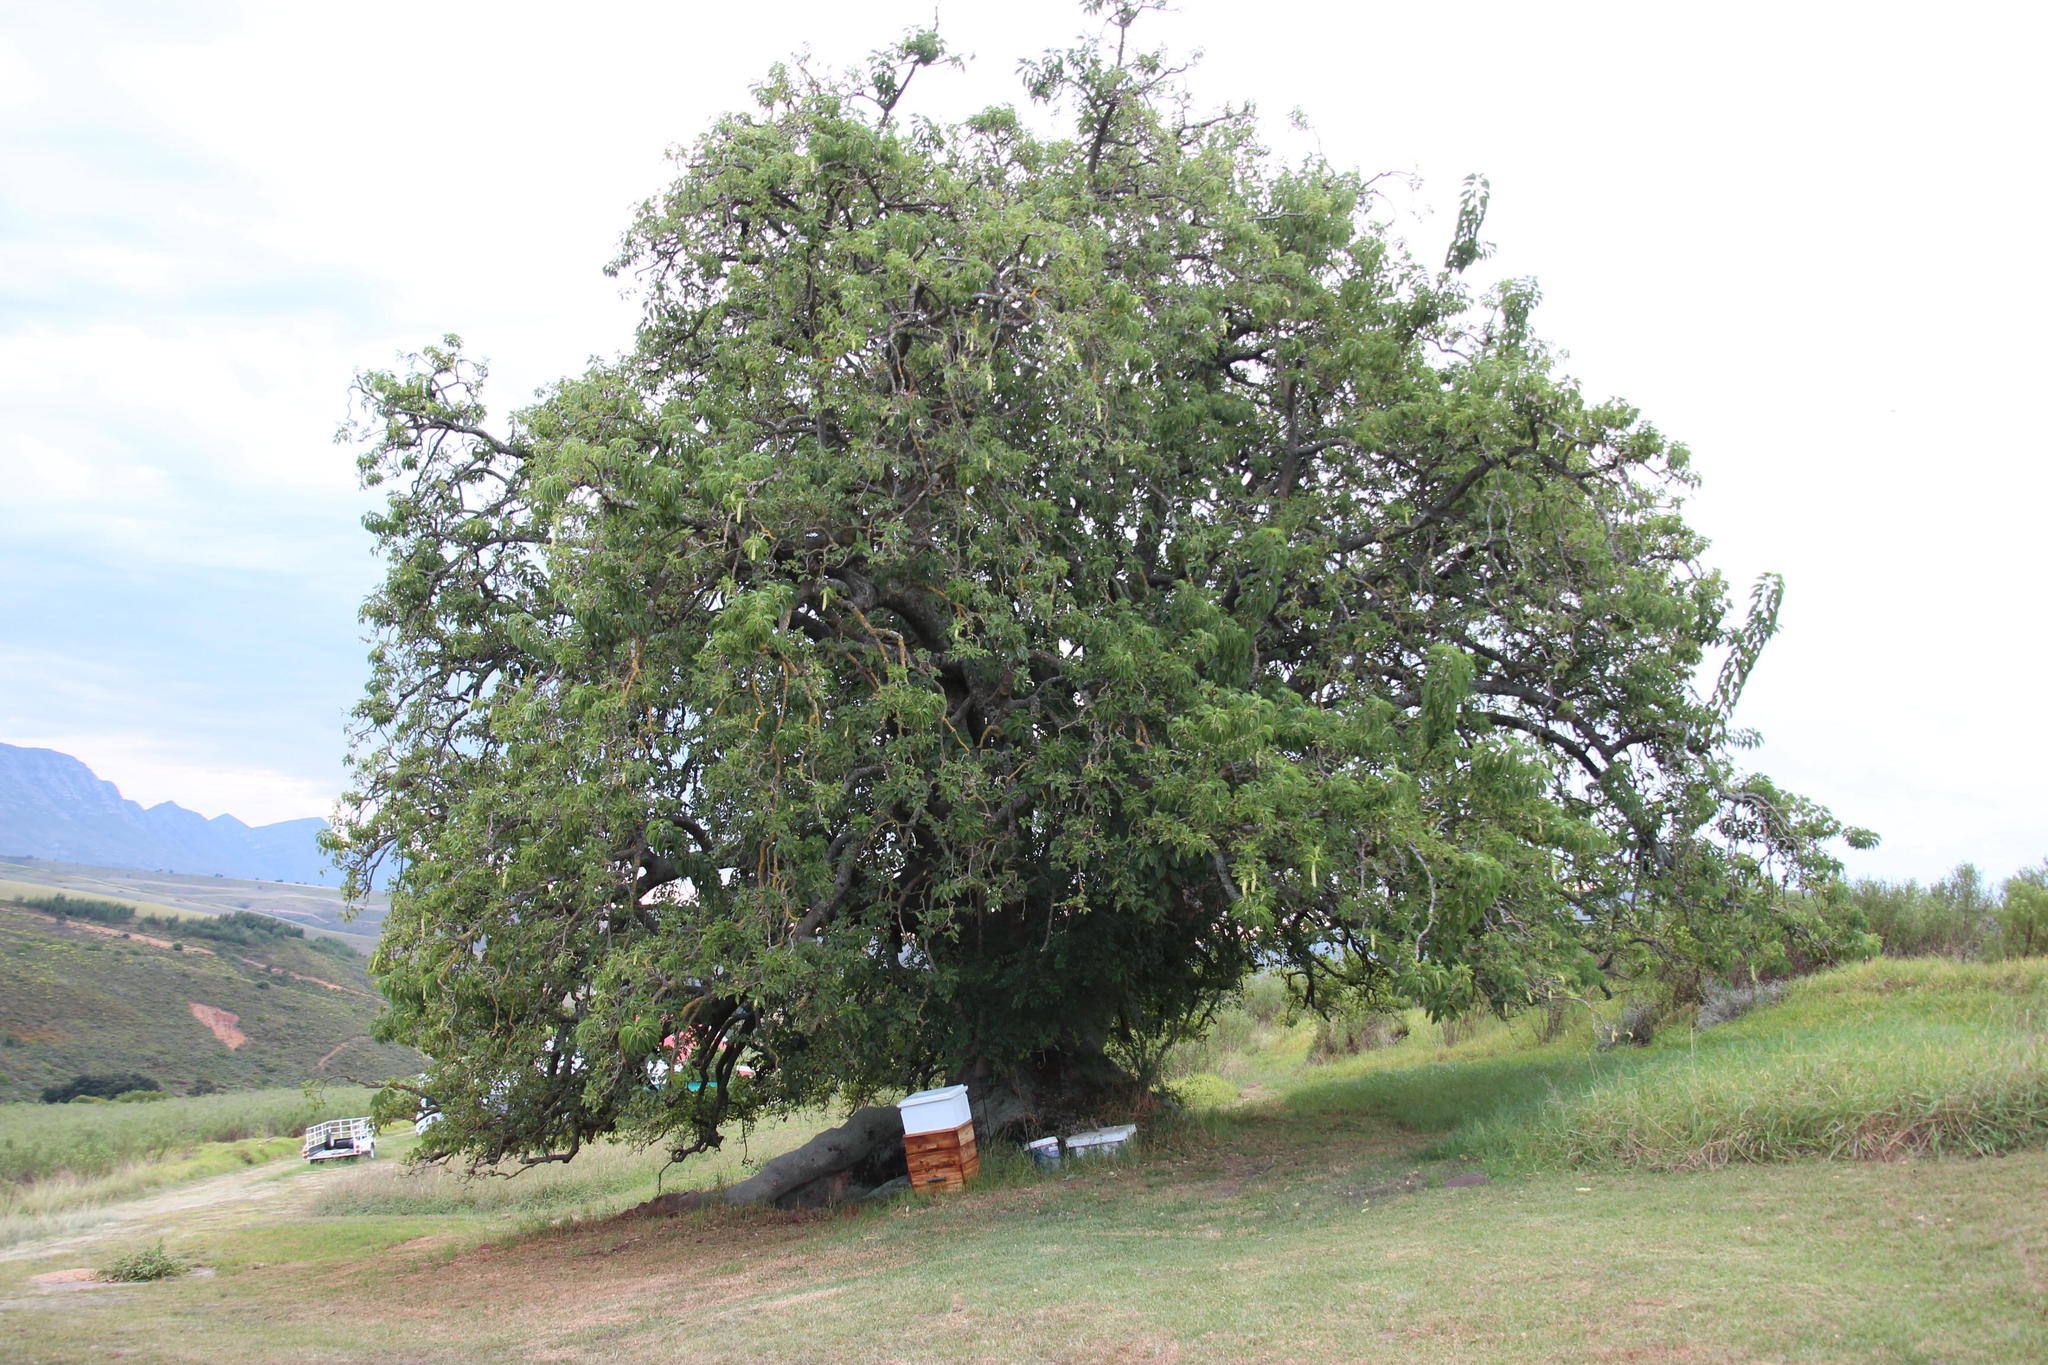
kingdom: Plantae
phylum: Tracheophyta
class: Magnoliopsida
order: Caryophyllales
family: Phytolaccaceae
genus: Phytolacca
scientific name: Phytolacca dioica
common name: Pokeweed
